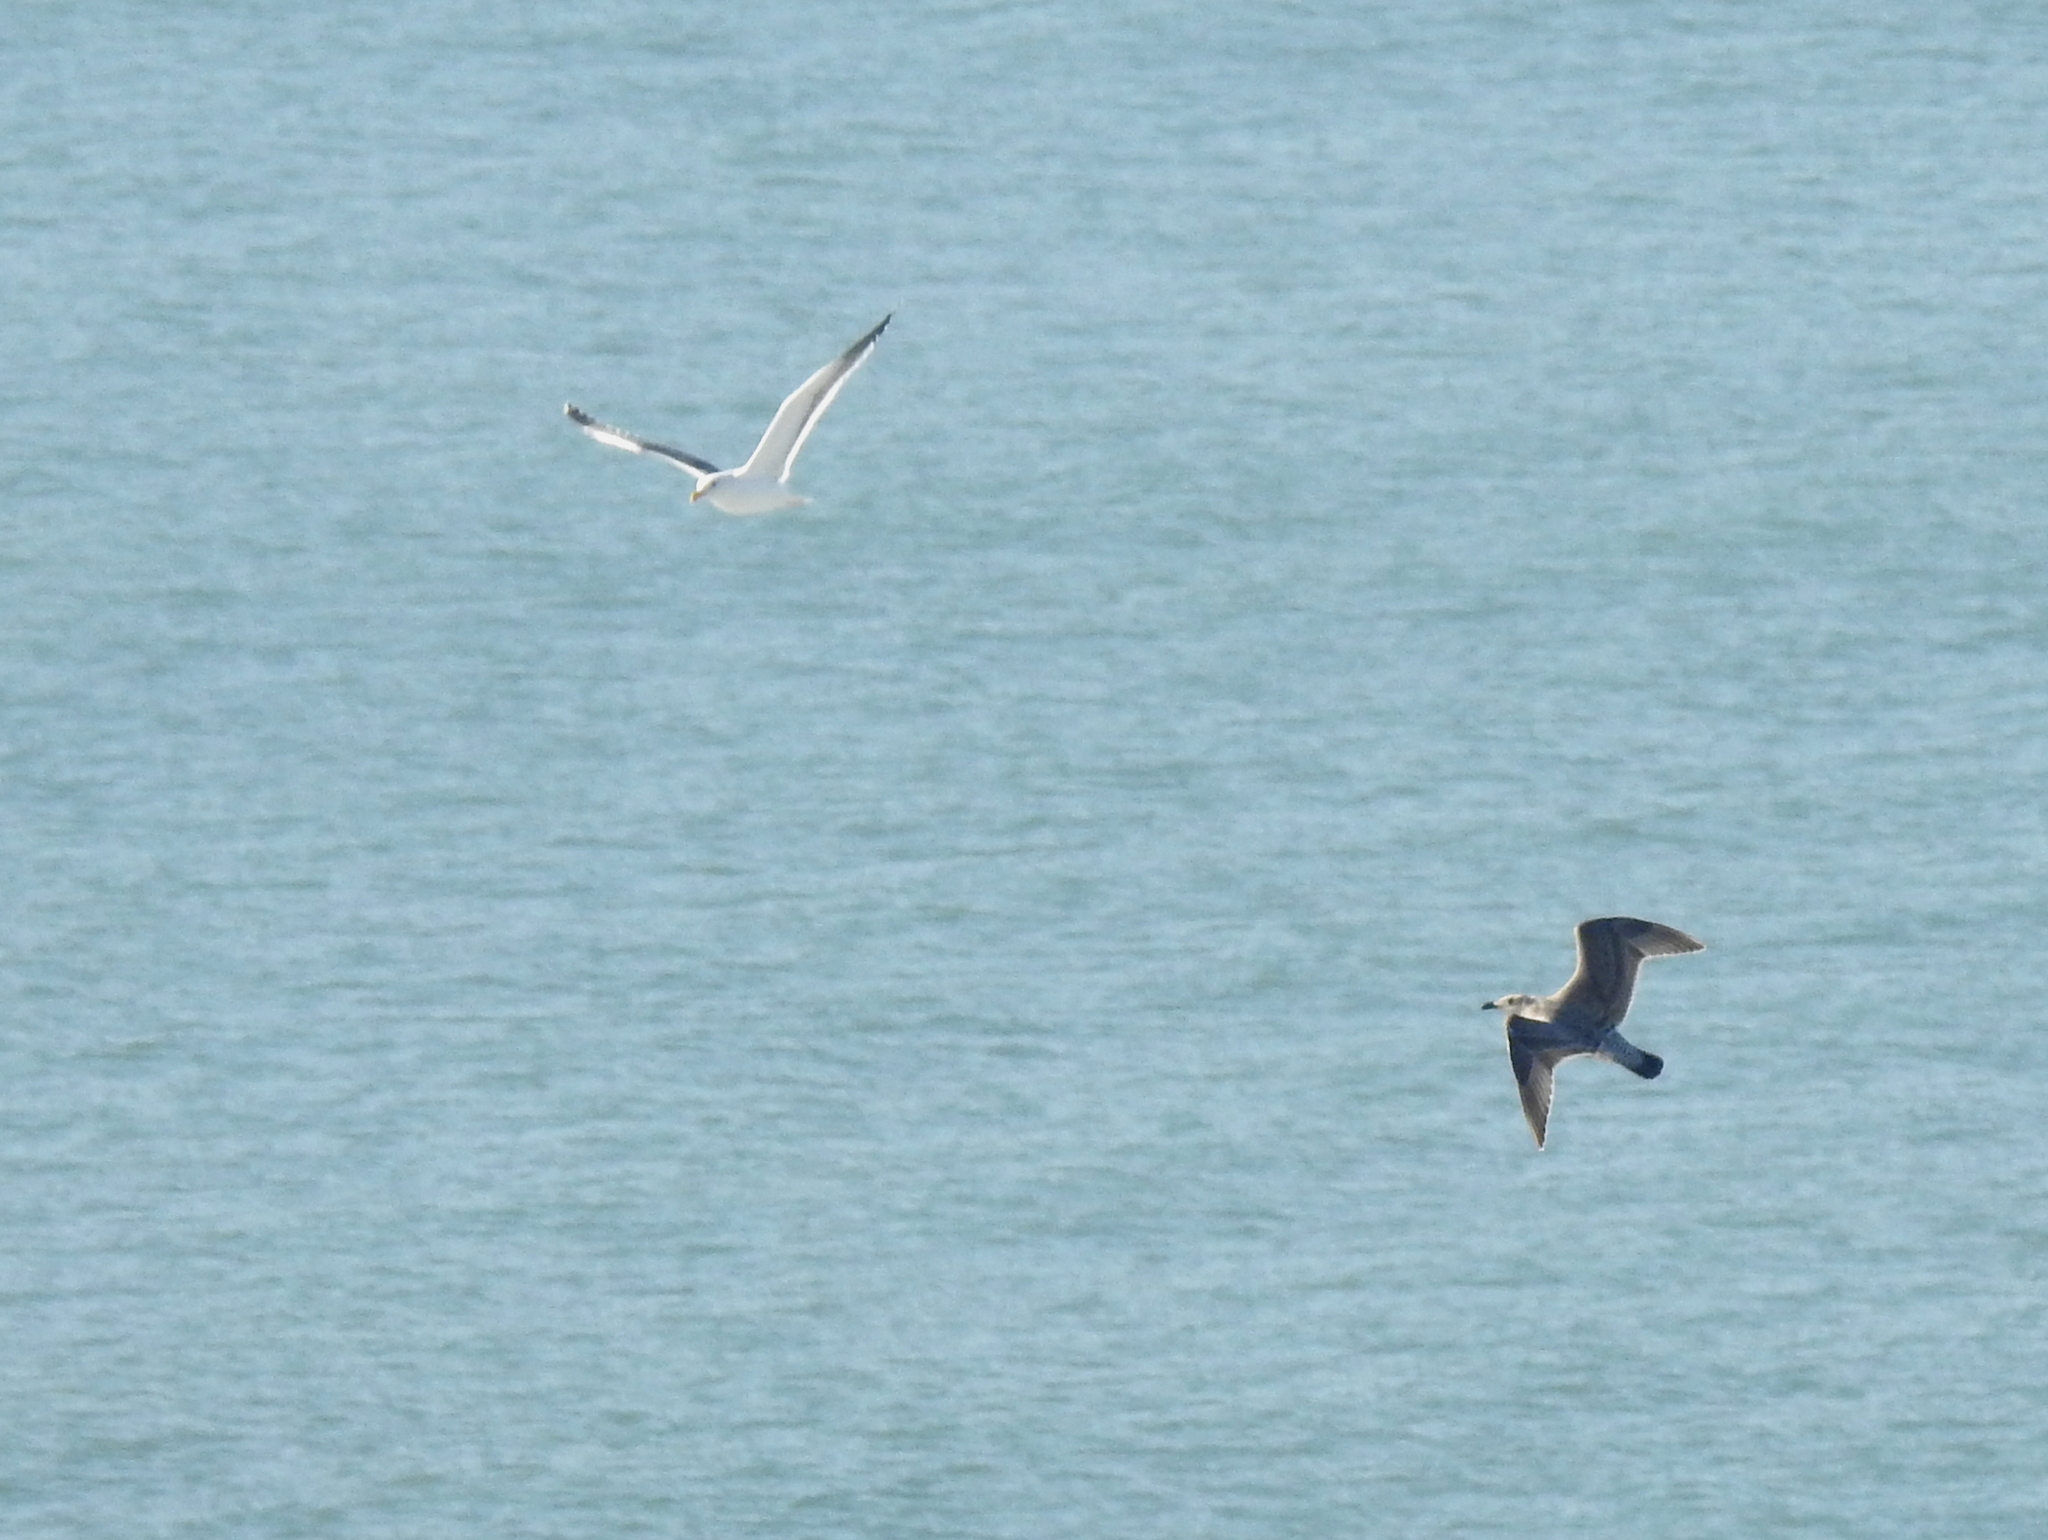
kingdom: Animalia
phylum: Chordata
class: Aves
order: Charadriiformes
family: Laridae
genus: Larus
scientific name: Larus
